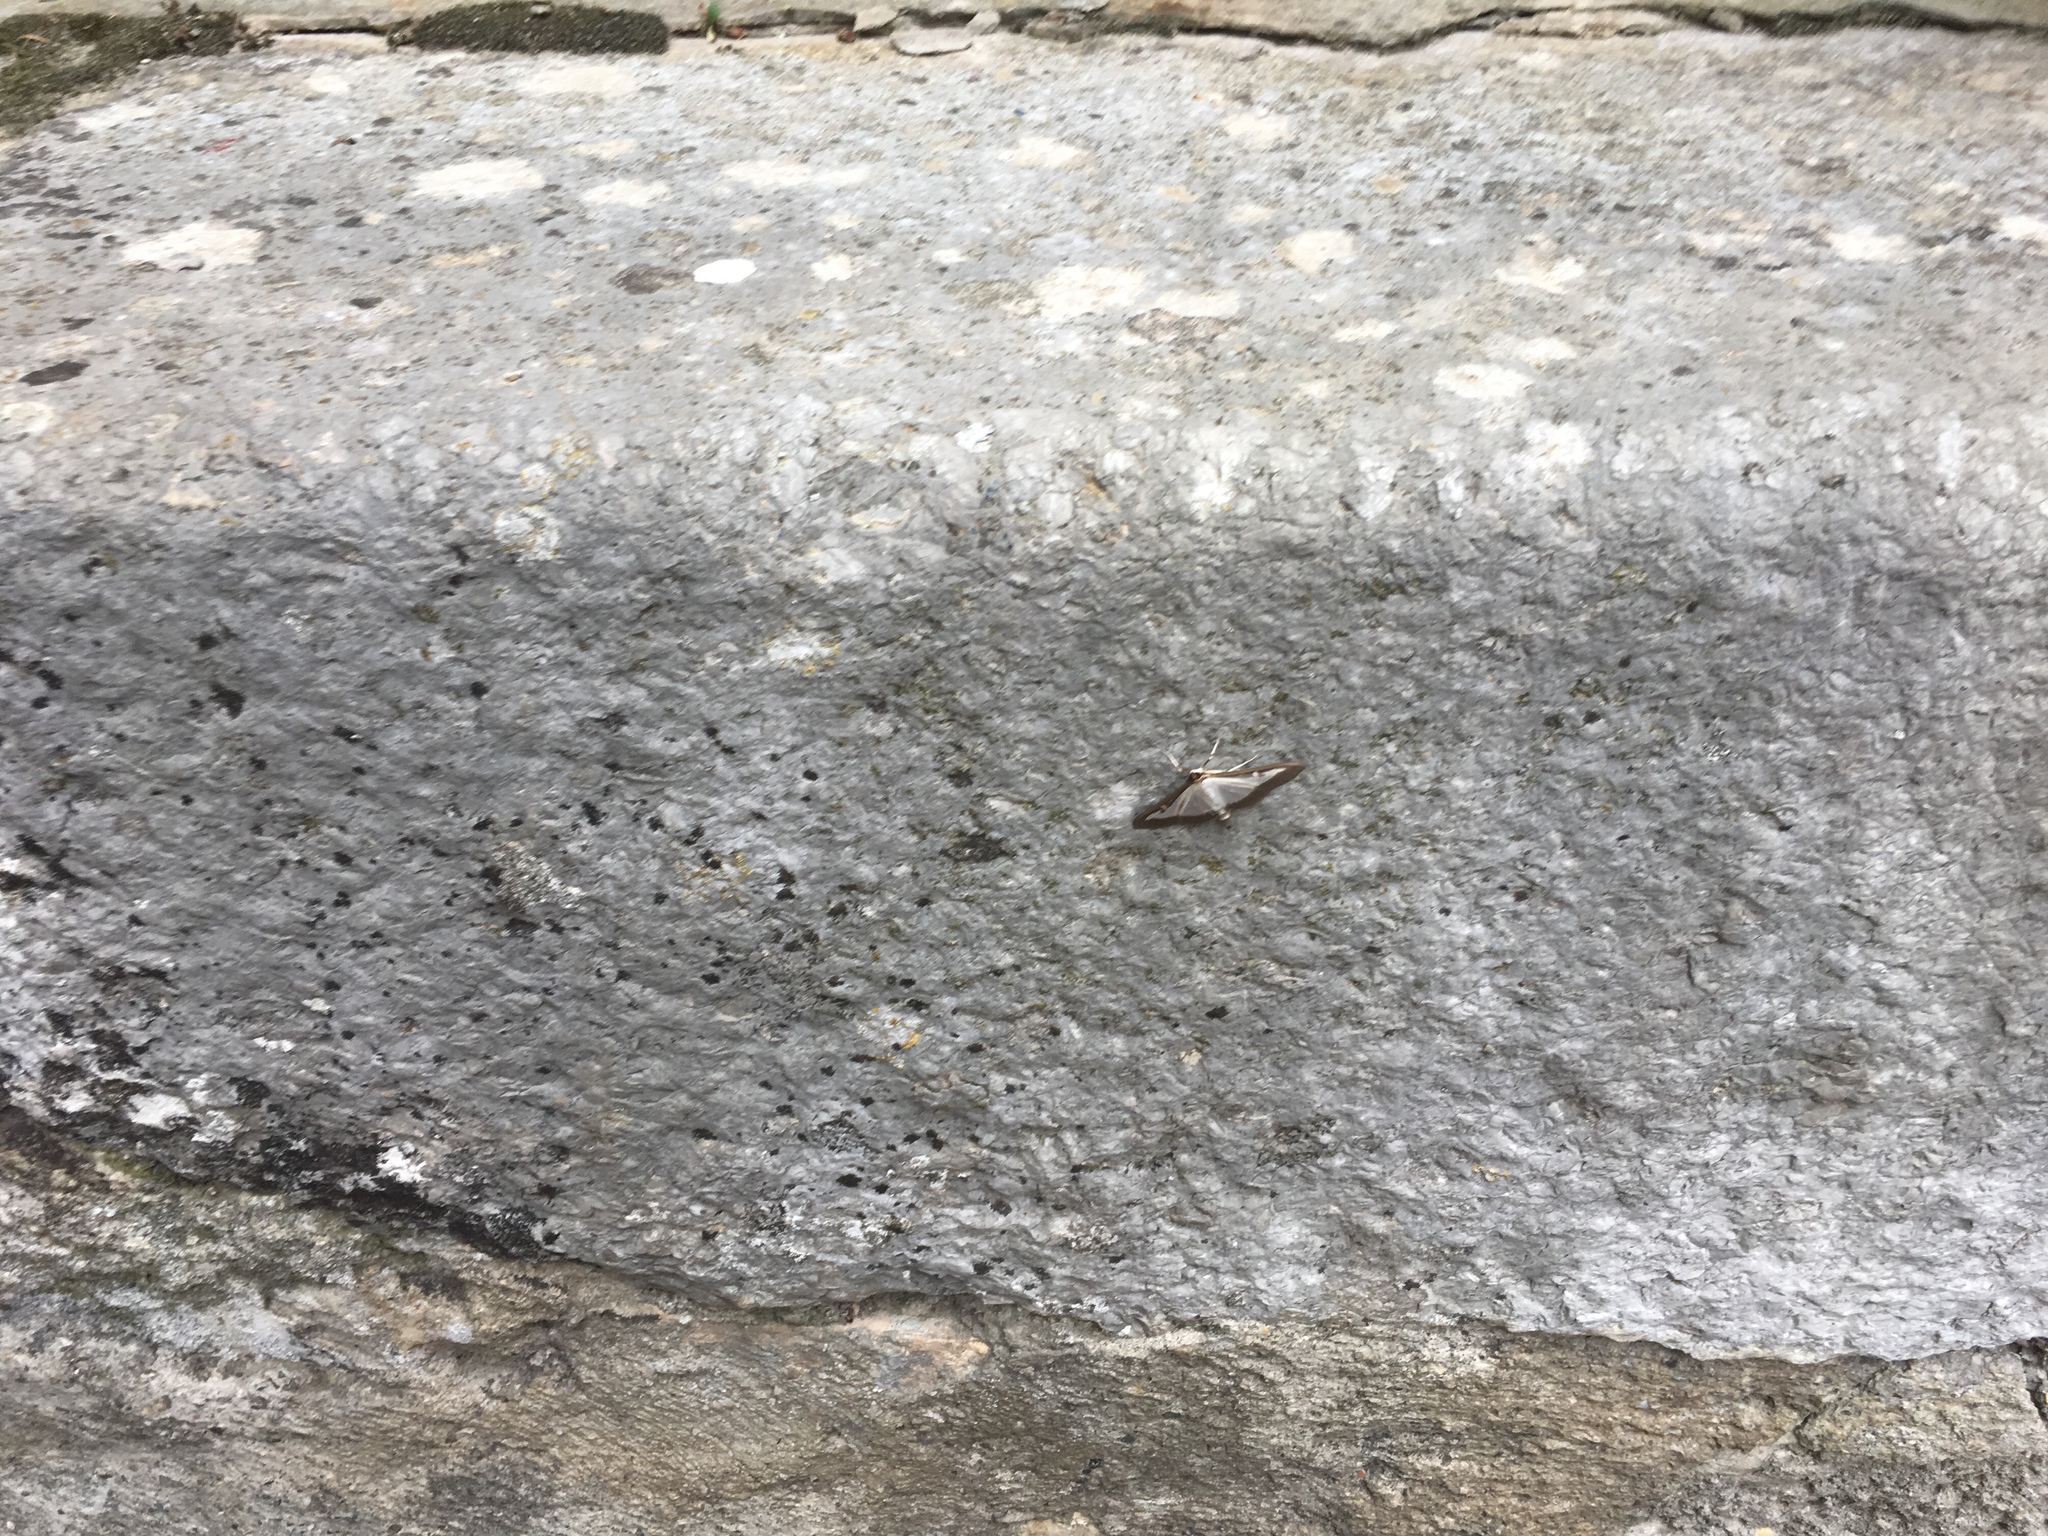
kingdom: Animalia
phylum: Arthropoda
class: Insecta
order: Lepidoptera
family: Crambidae
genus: Cydalima
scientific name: Cydalima perspectalis
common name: Box tree moth
